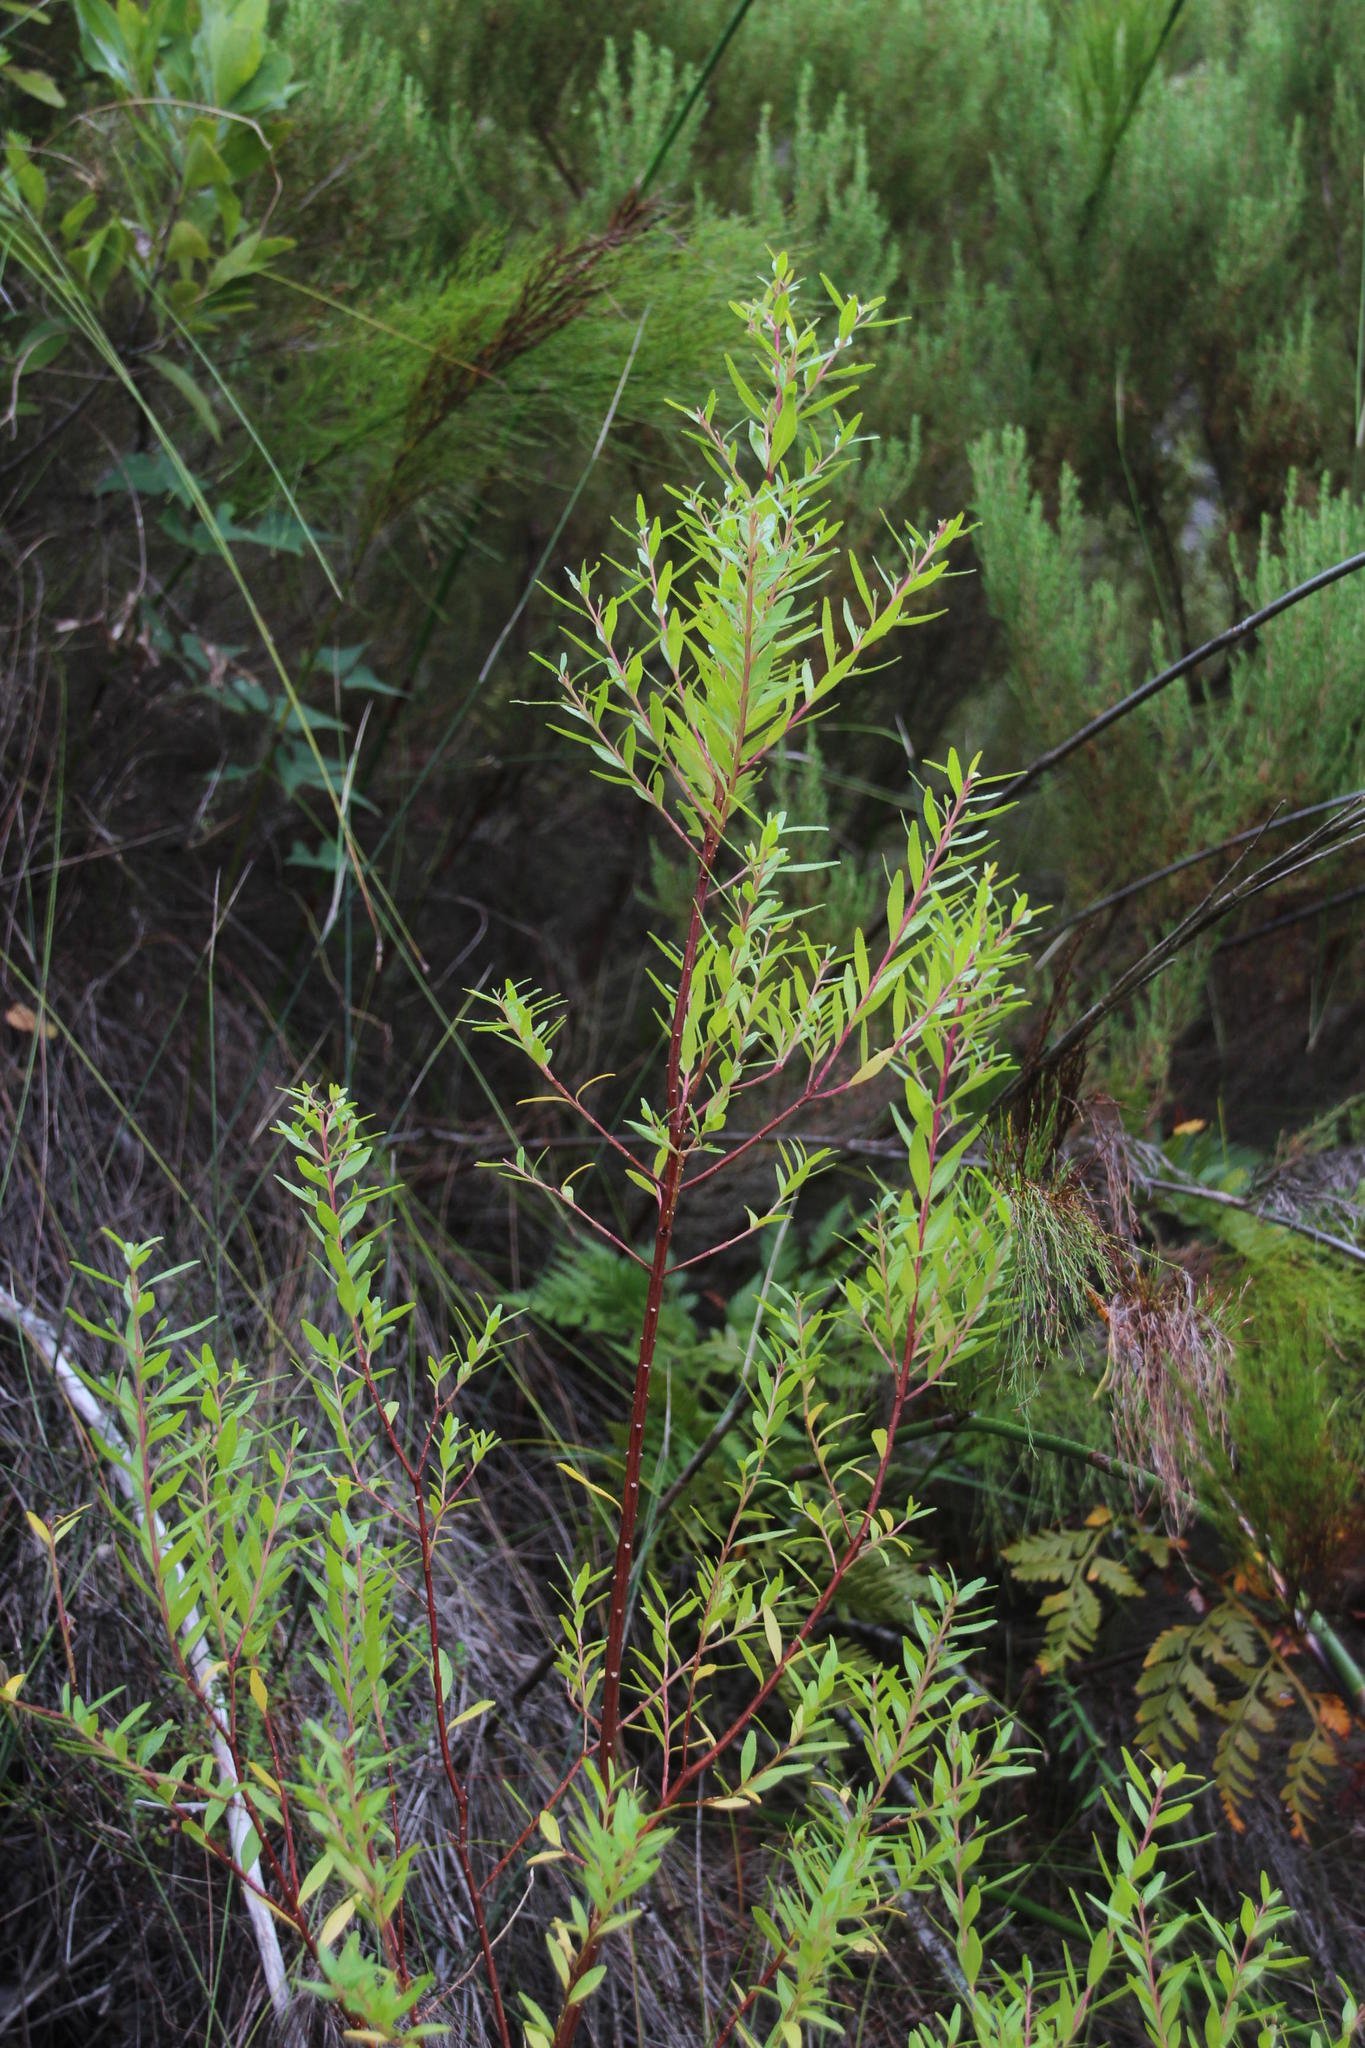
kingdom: Plantae
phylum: Tracheophyta
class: Magnoliopsida
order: Sapindales
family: Rutaceae
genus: Agathosma
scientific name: Agathosma crenulata
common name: Oval buchu
